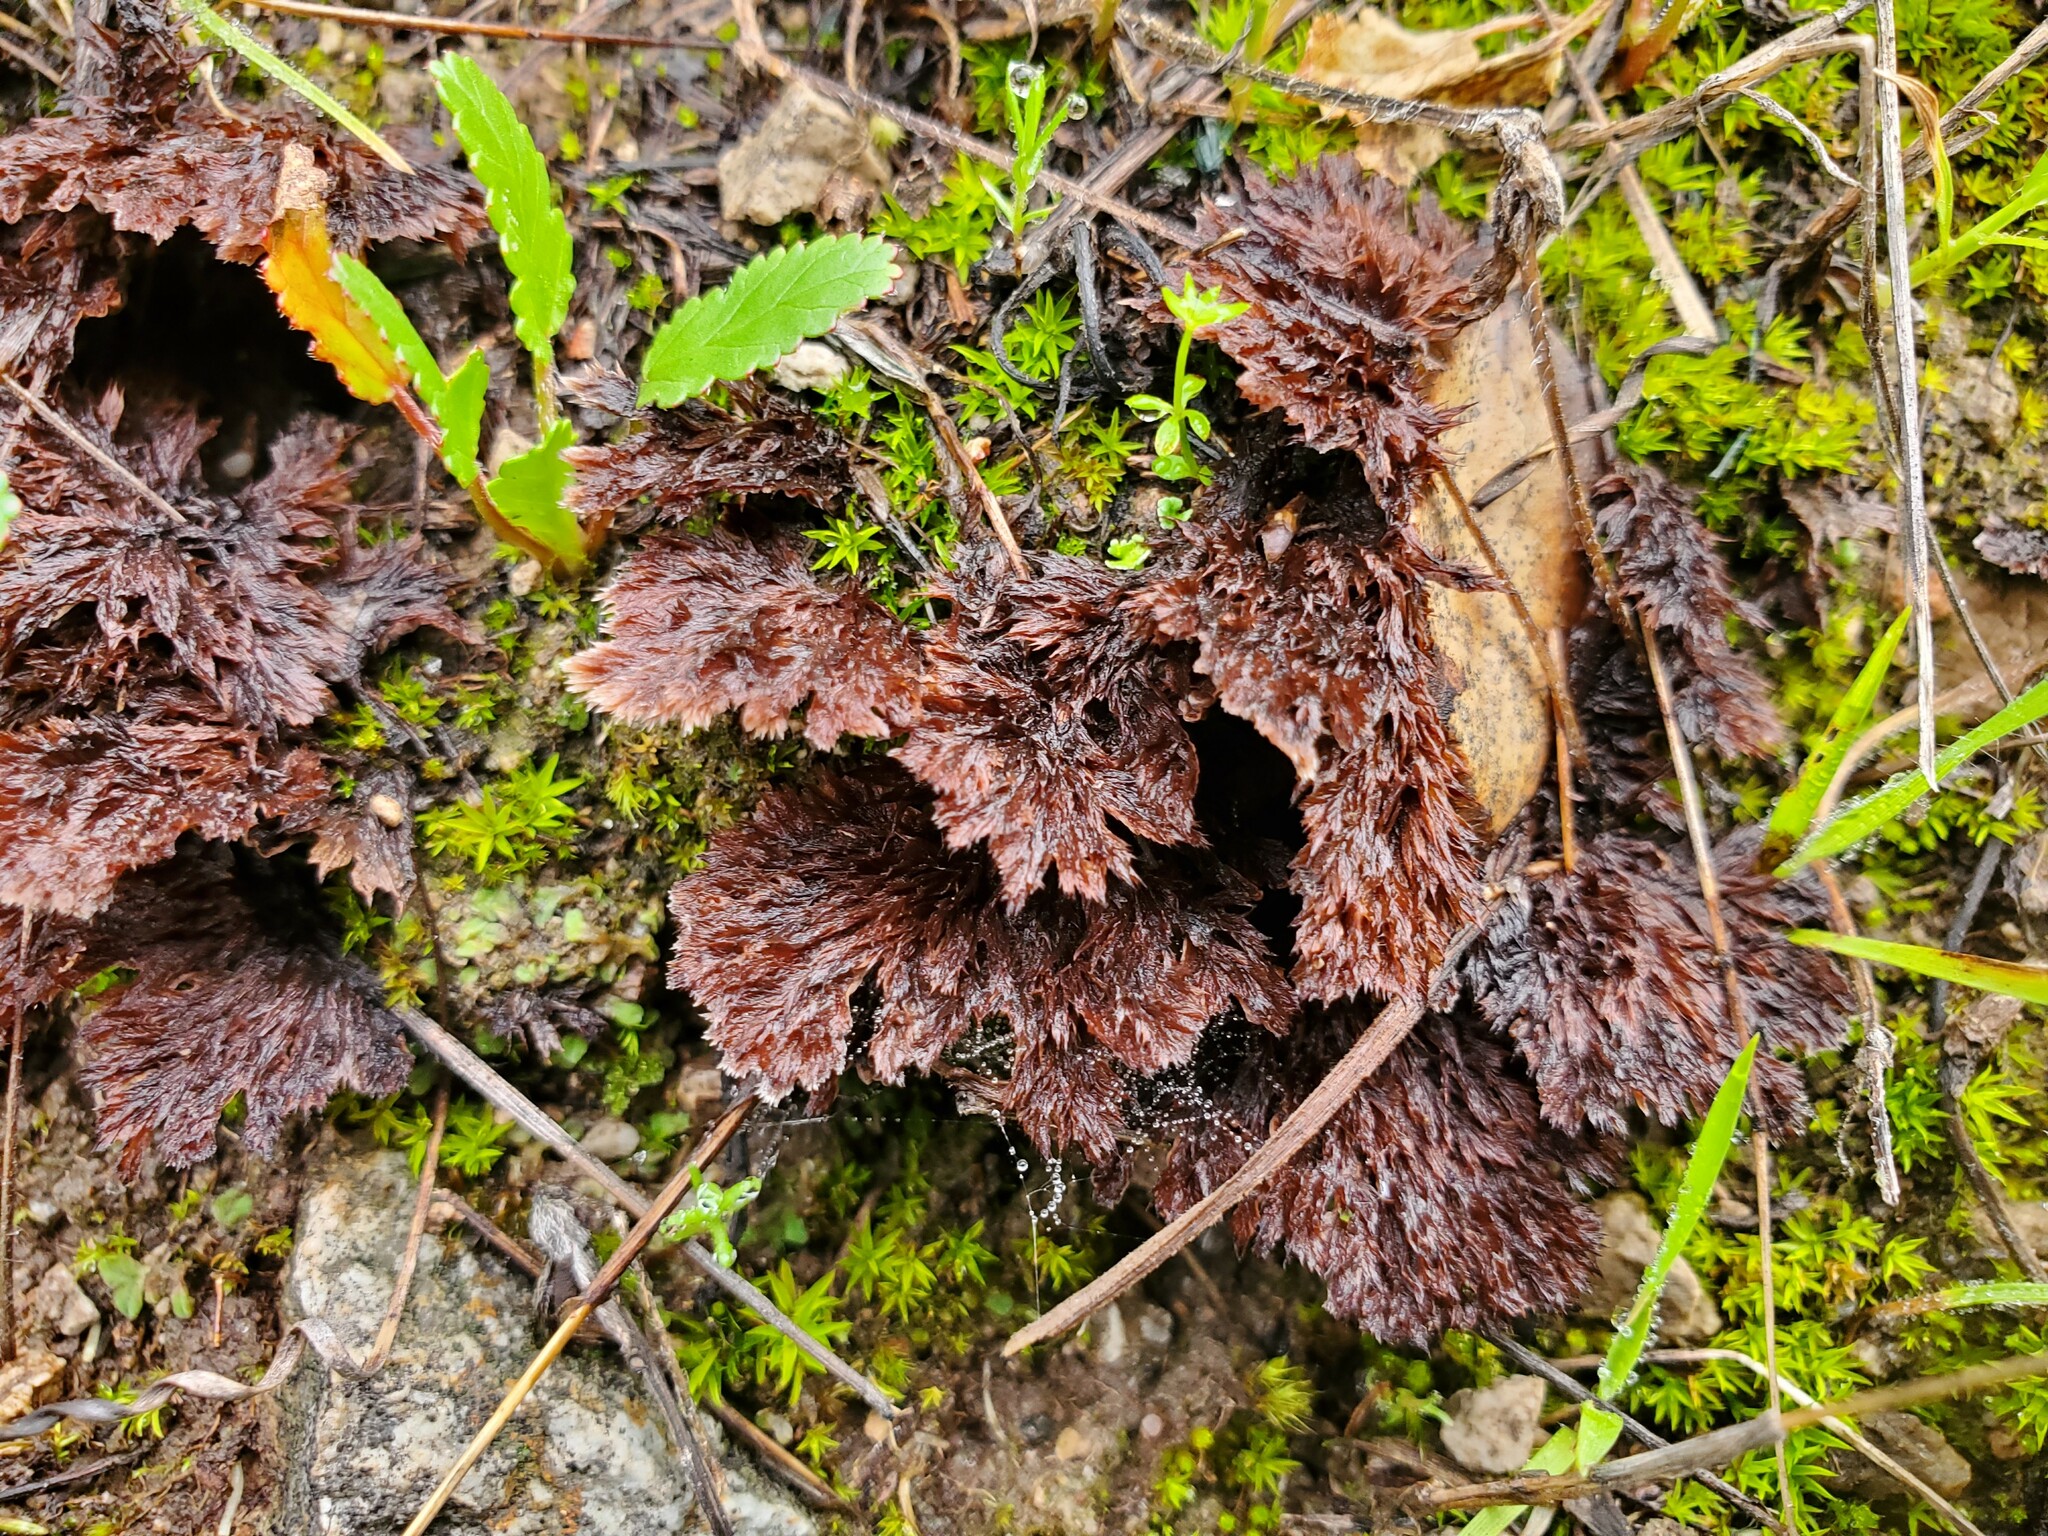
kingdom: Fungi
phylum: Basidiomycota
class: Agaricomycetes
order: Thelephorales
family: Thelephoraceae
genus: Thelephora
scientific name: Thelephora terrestris
